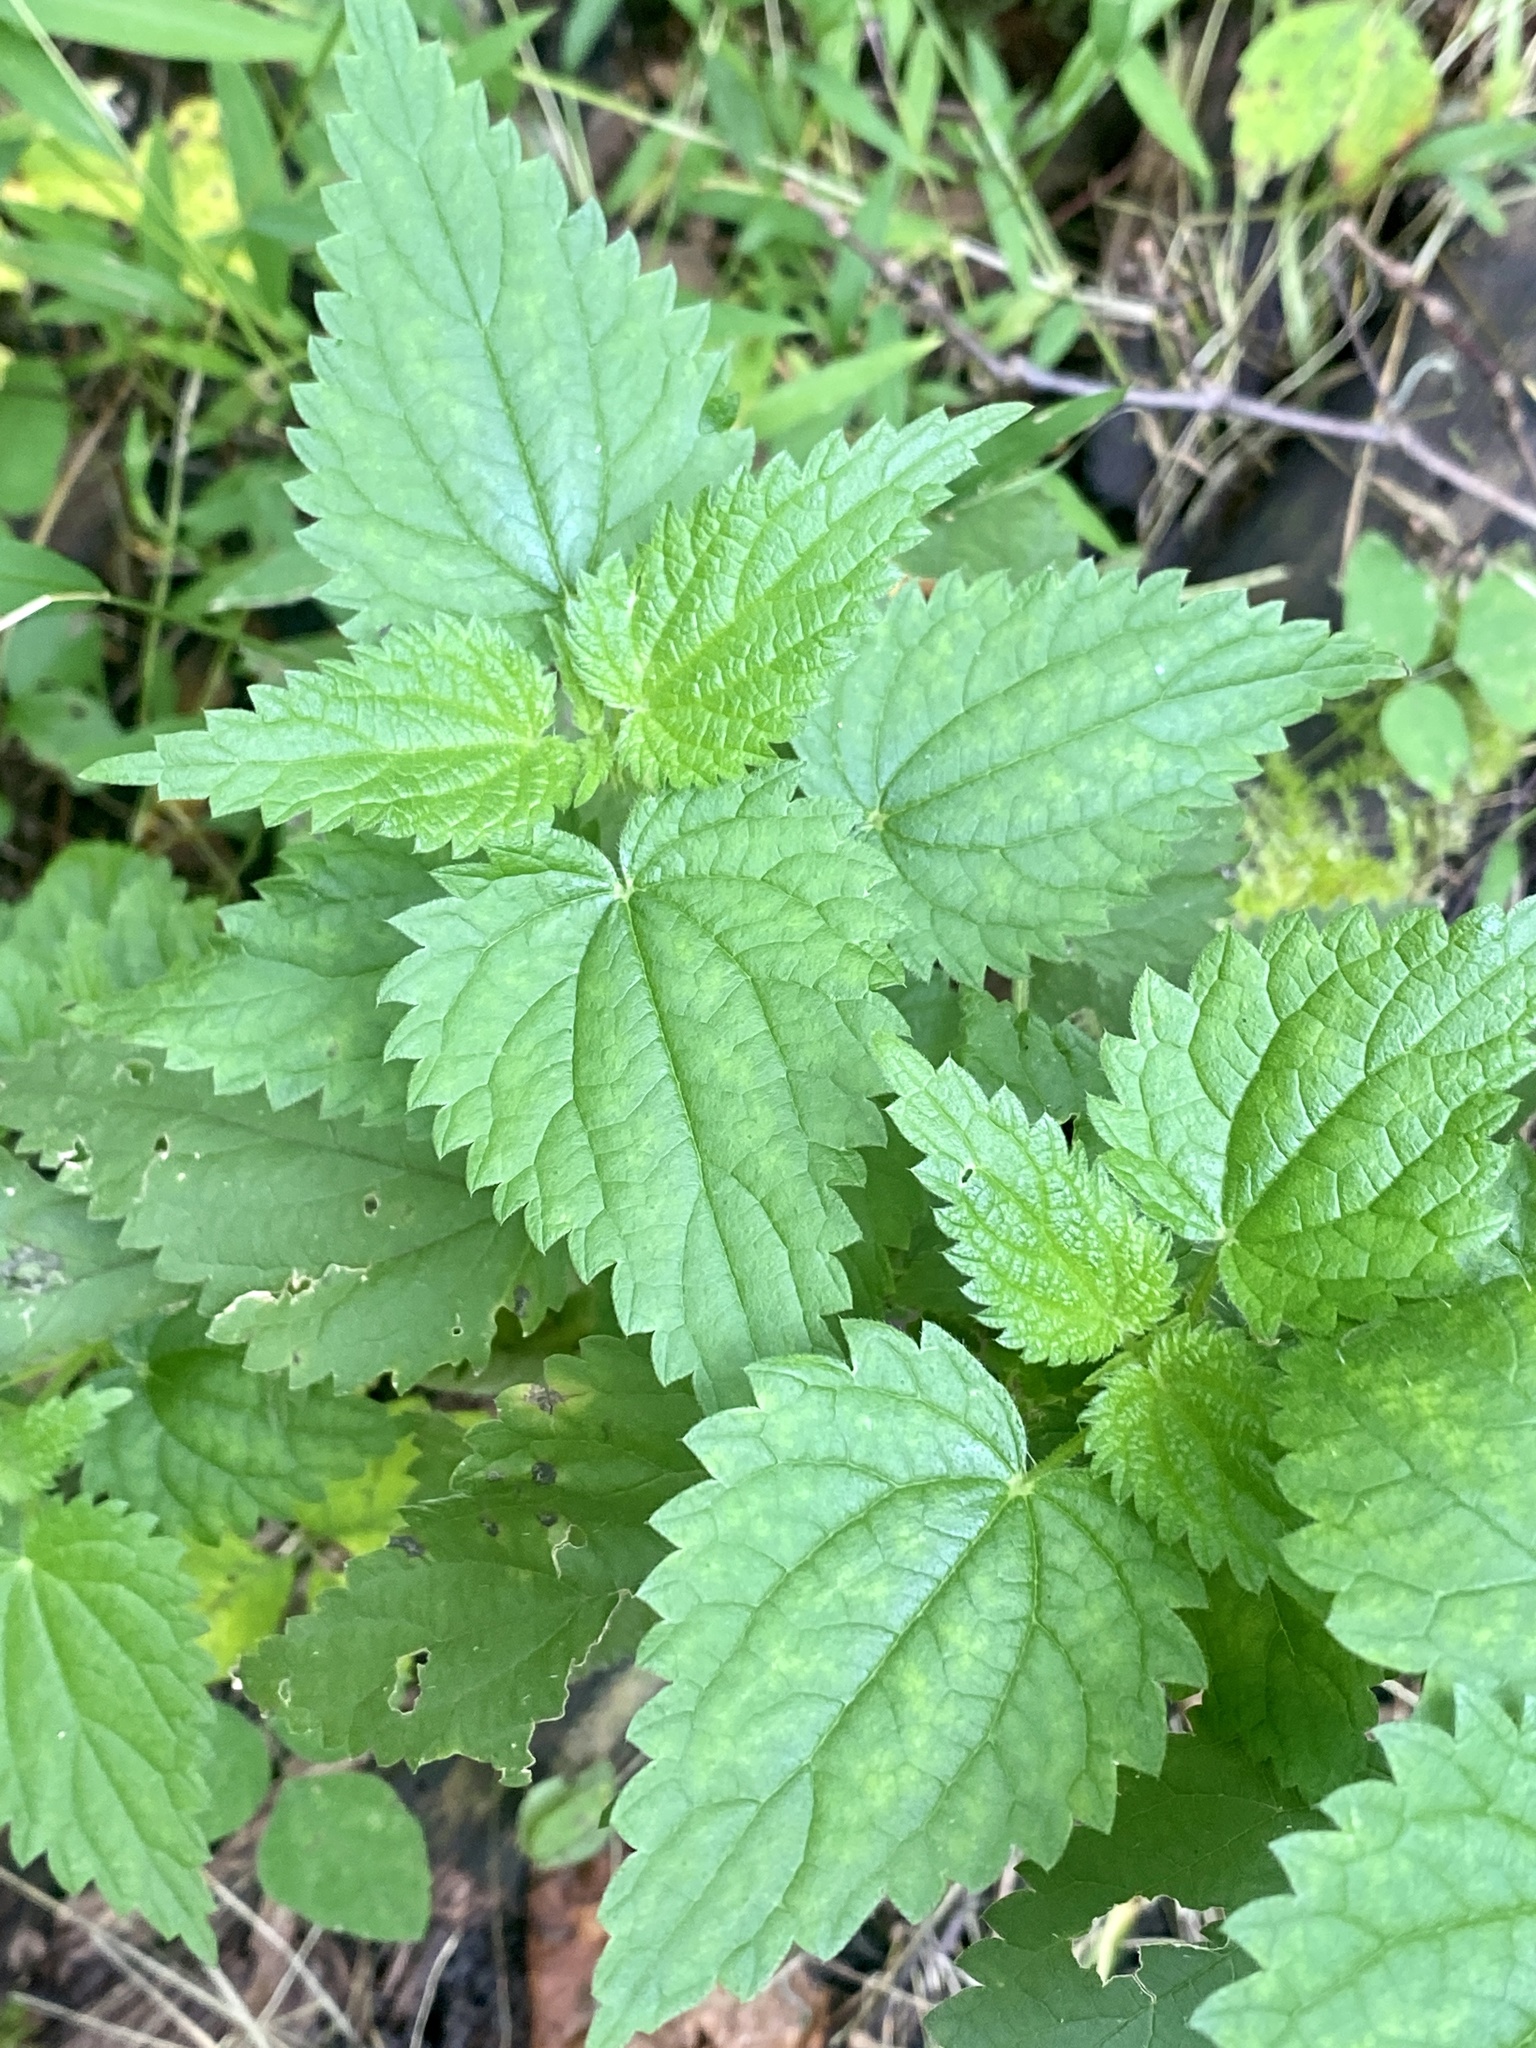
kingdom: Plantae
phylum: Tracheophyta
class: Magnoliopsida
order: Rosales
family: Urticaceae
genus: Urtica
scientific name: Urtica dioica
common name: Common nettle
